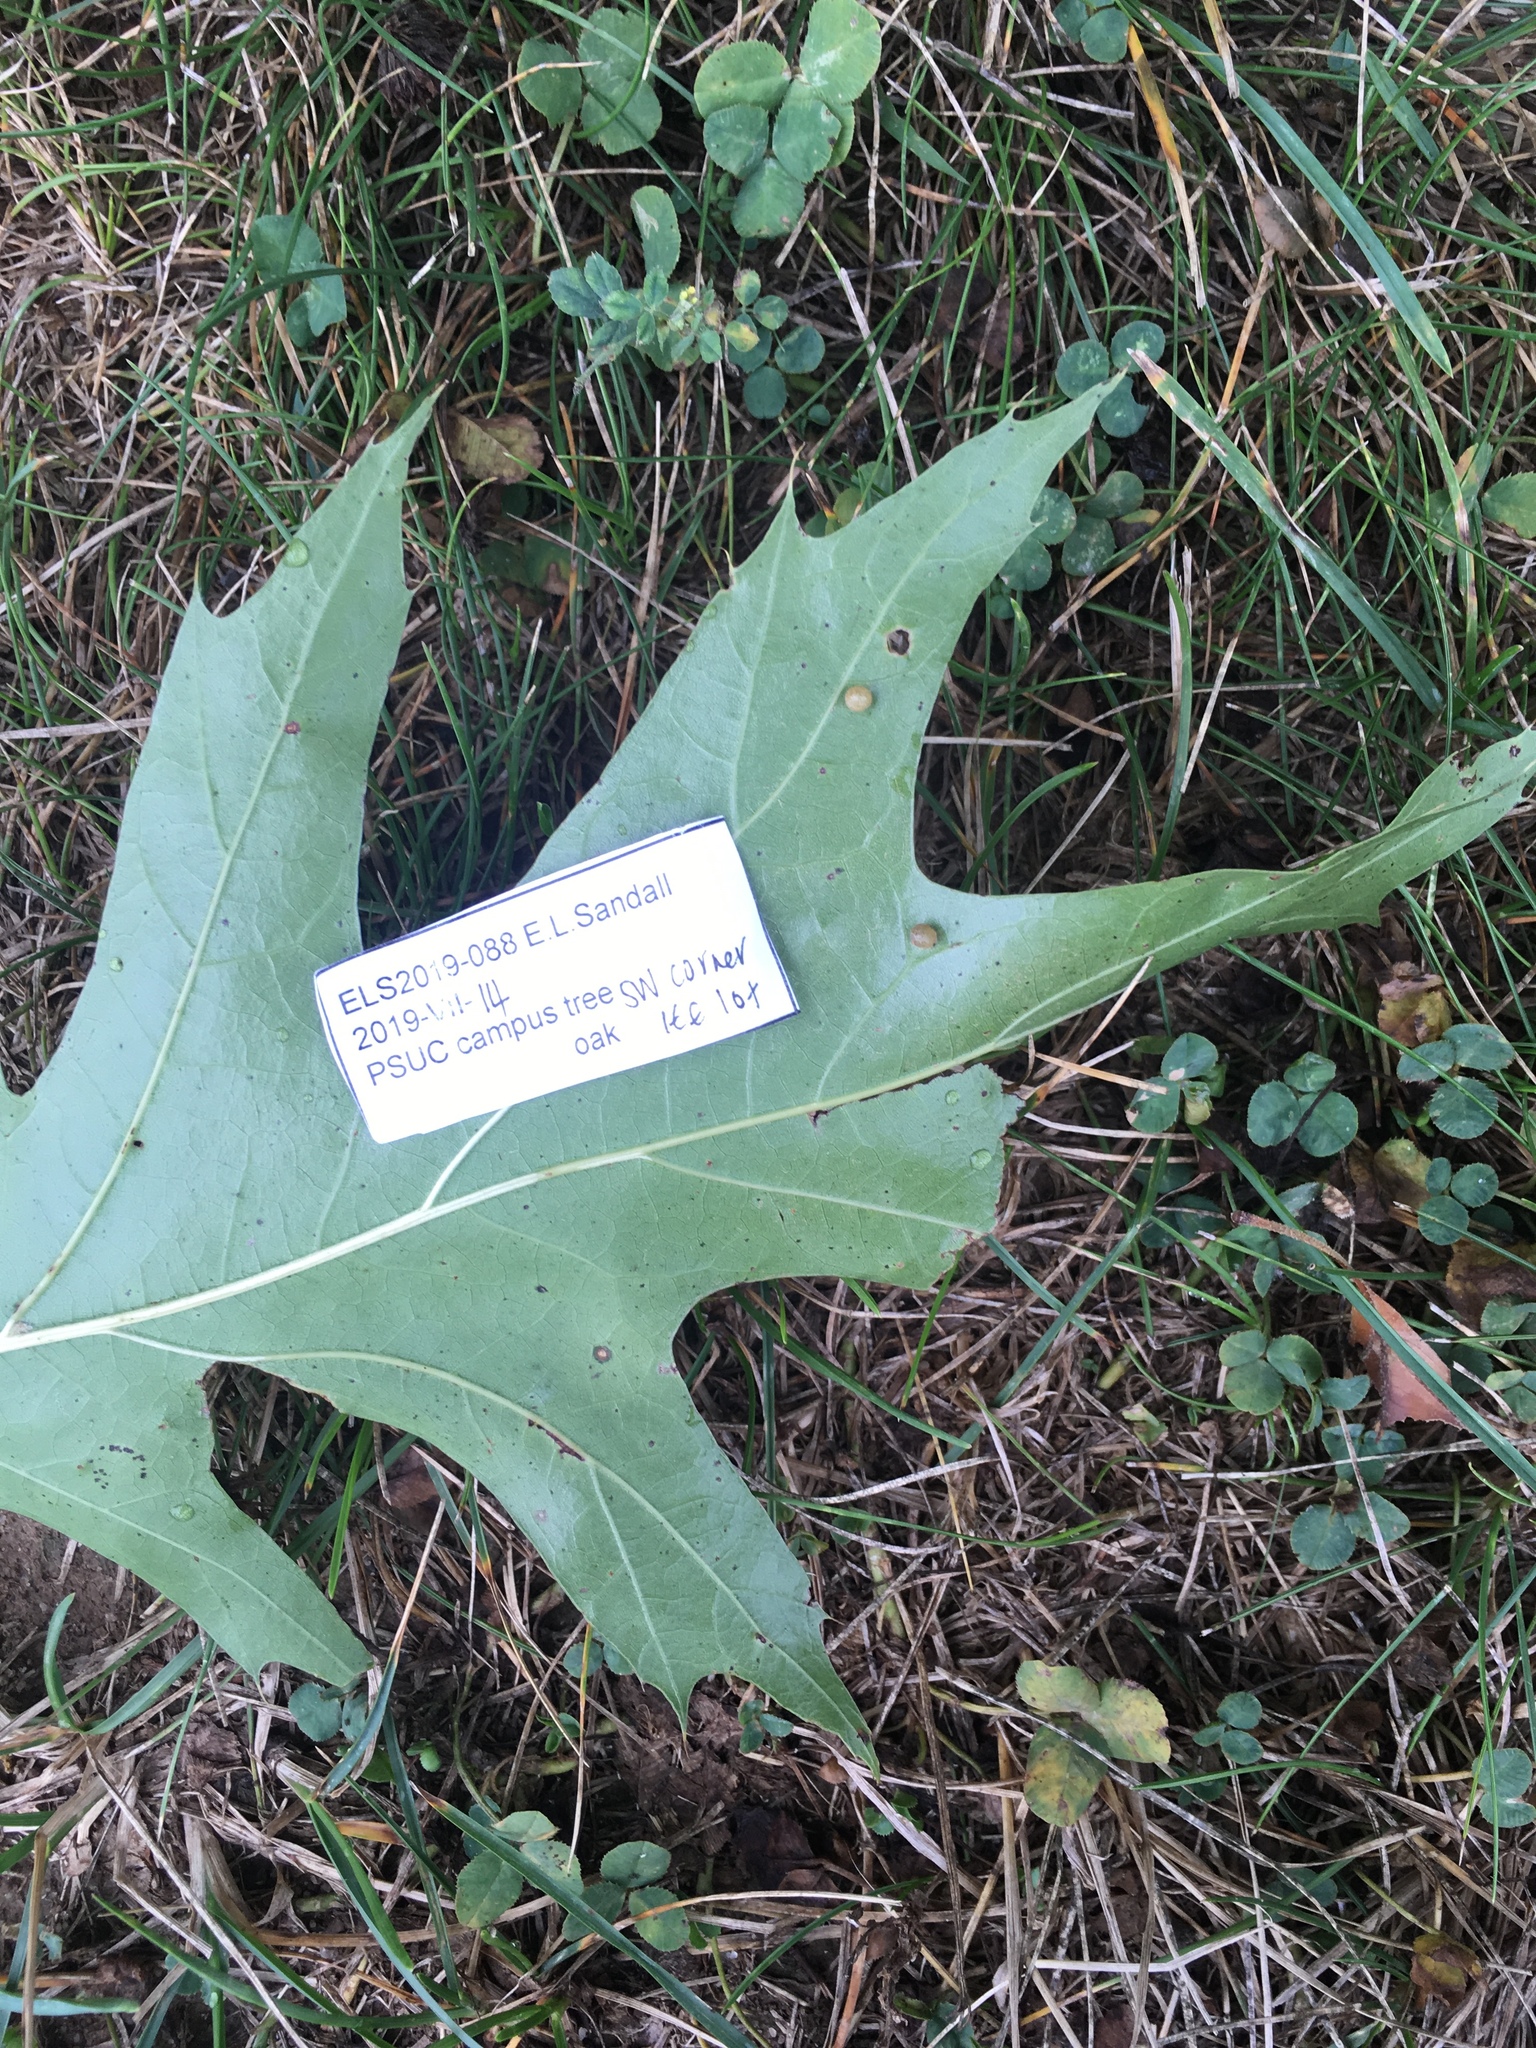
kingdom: Animalia
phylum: Arthropoda
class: Insecta
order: Diptera
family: Cecidomyiidae
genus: Polystepha
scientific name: Polystepha globosa
